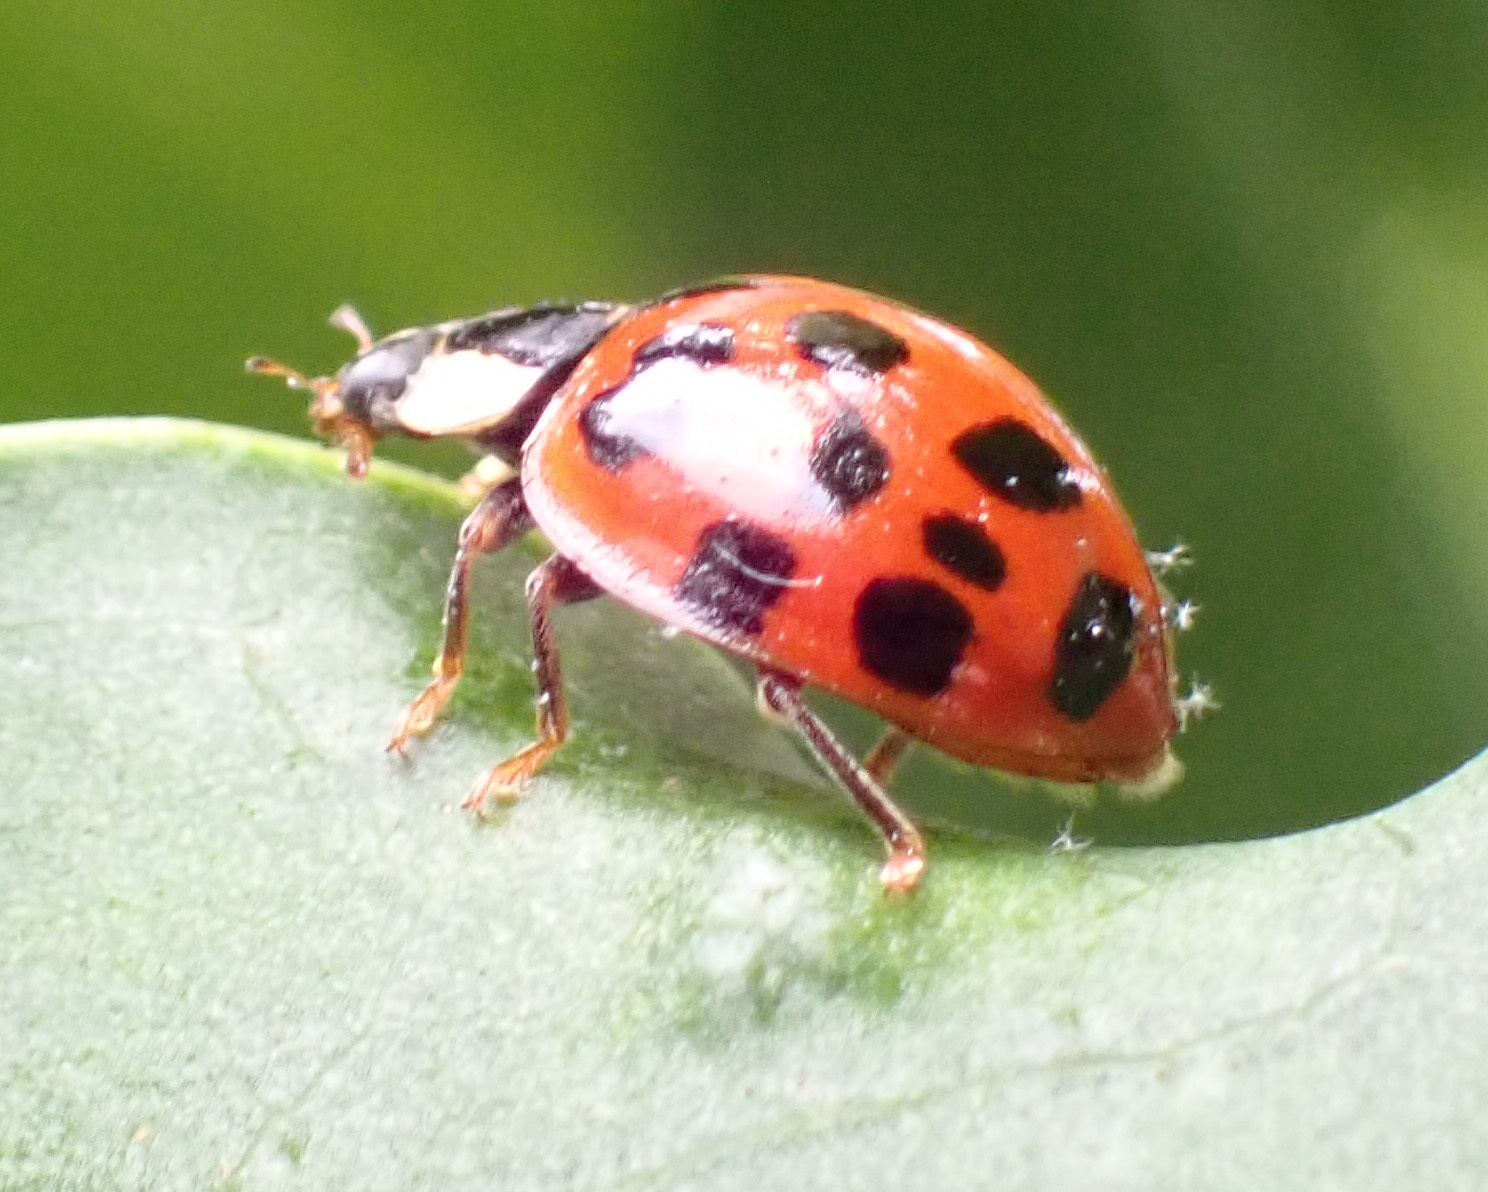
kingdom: Animalia
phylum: Arthropoda
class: Insecta
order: Coleoptera
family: Coccinellidae
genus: Harmonia
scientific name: Harmonia axyridis
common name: Harlequin ladybird
